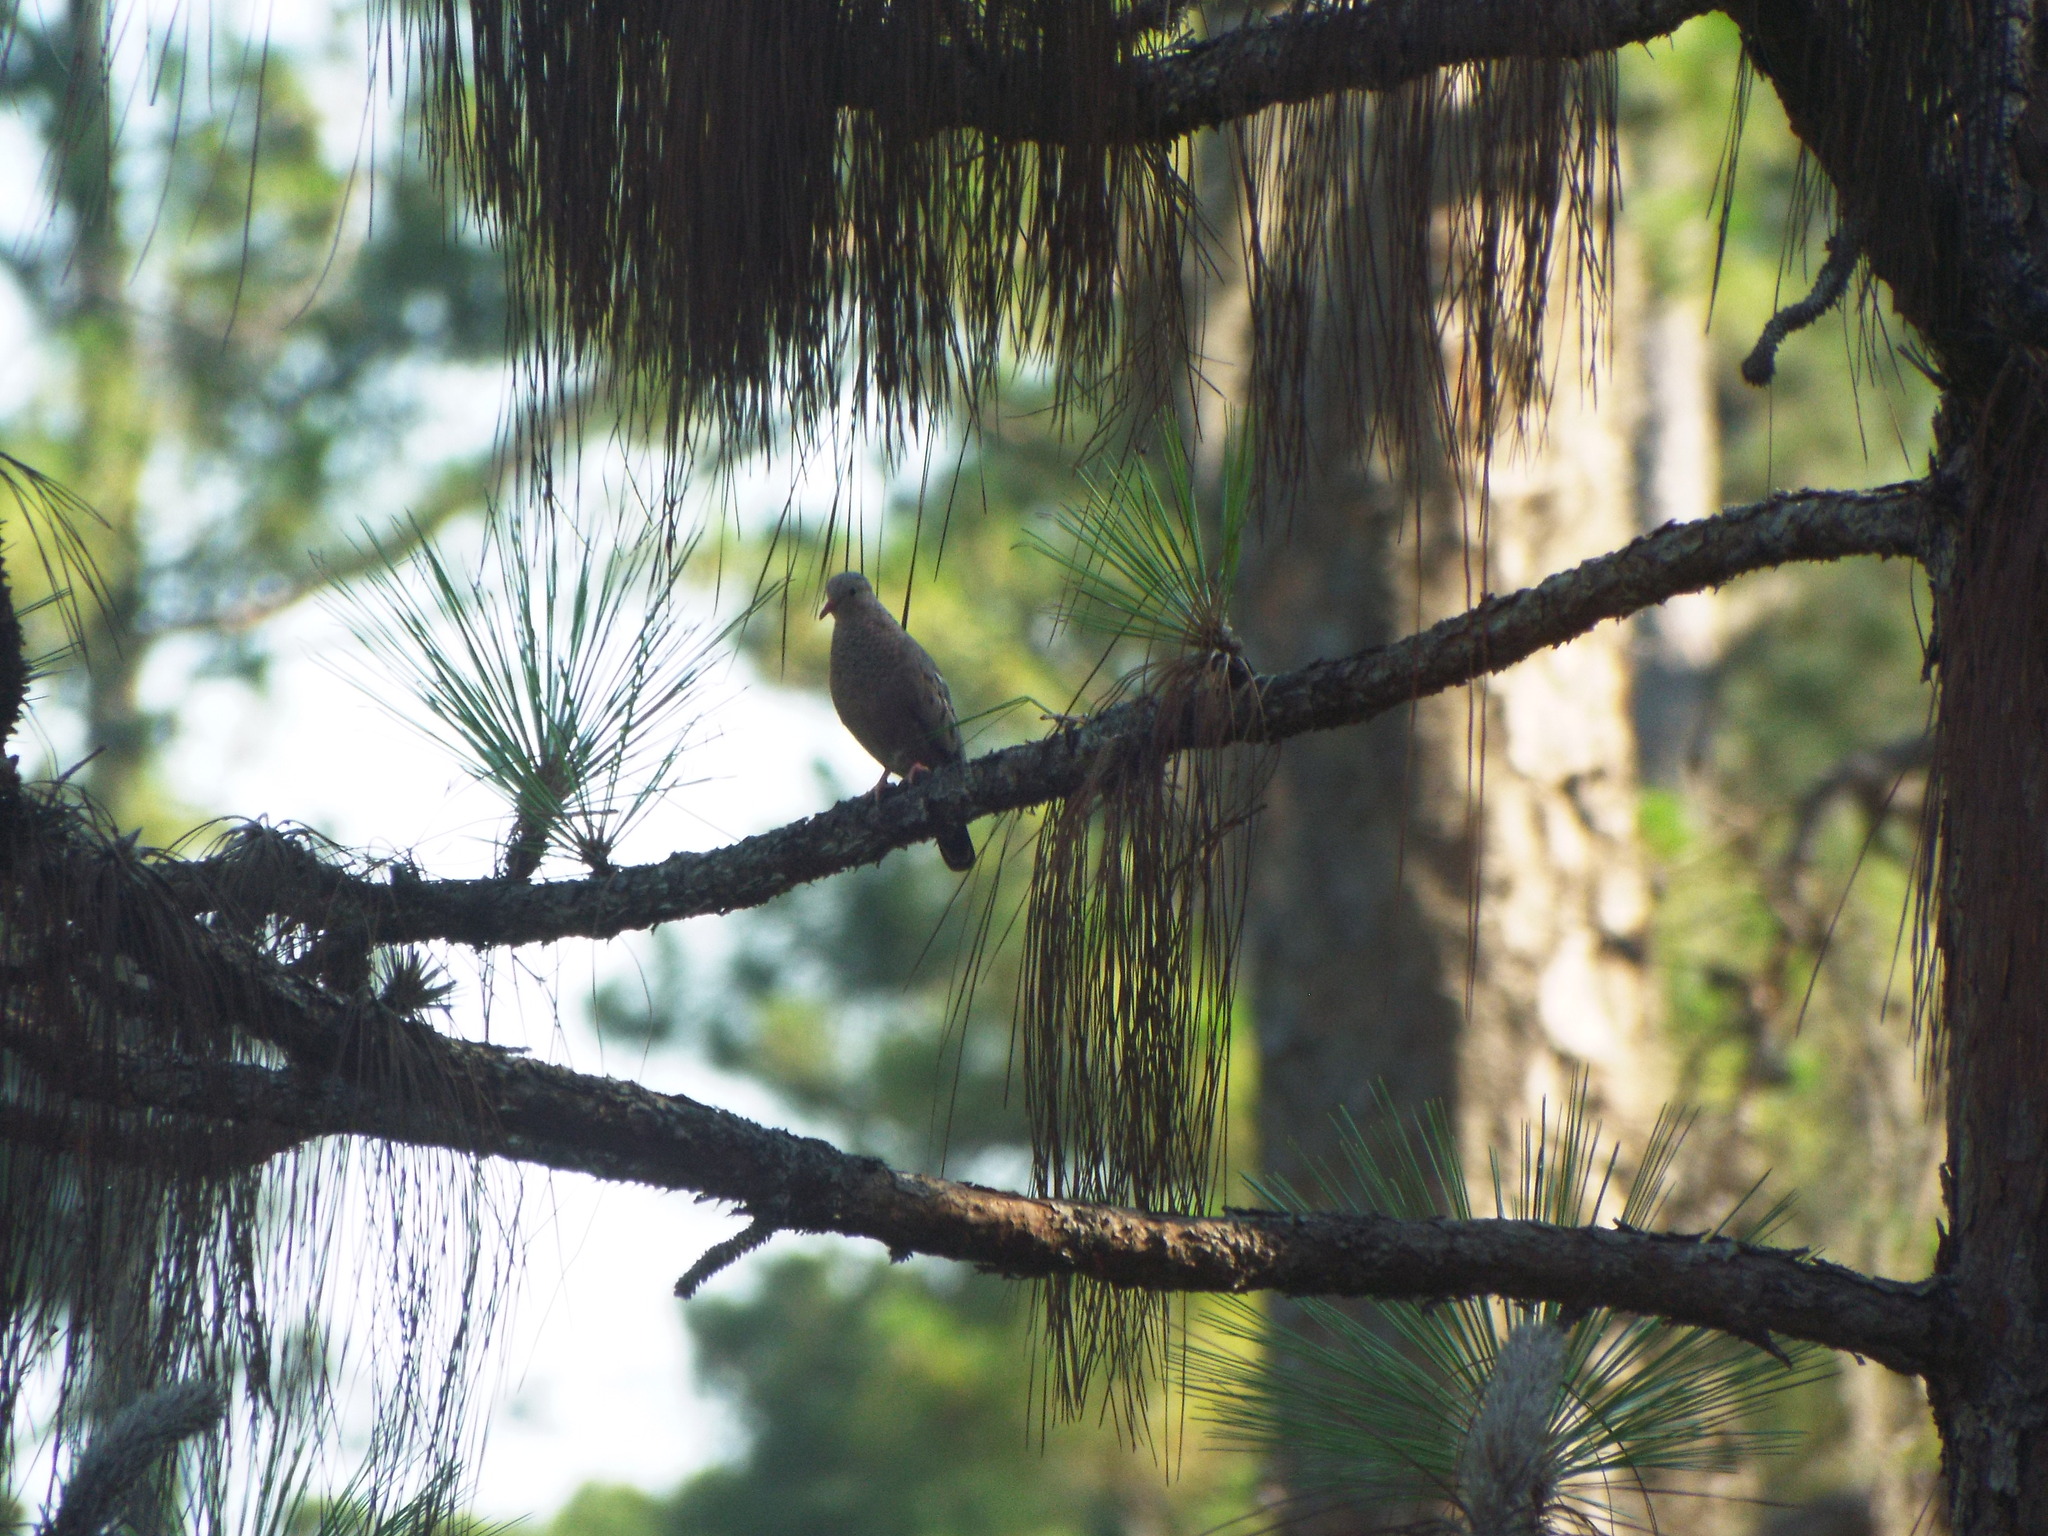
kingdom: Animalia
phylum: Chordata
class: Aves
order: Columbiformes
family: Columbidae
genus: Columbina
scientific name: Columbina passerina
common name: Common ground-dove
